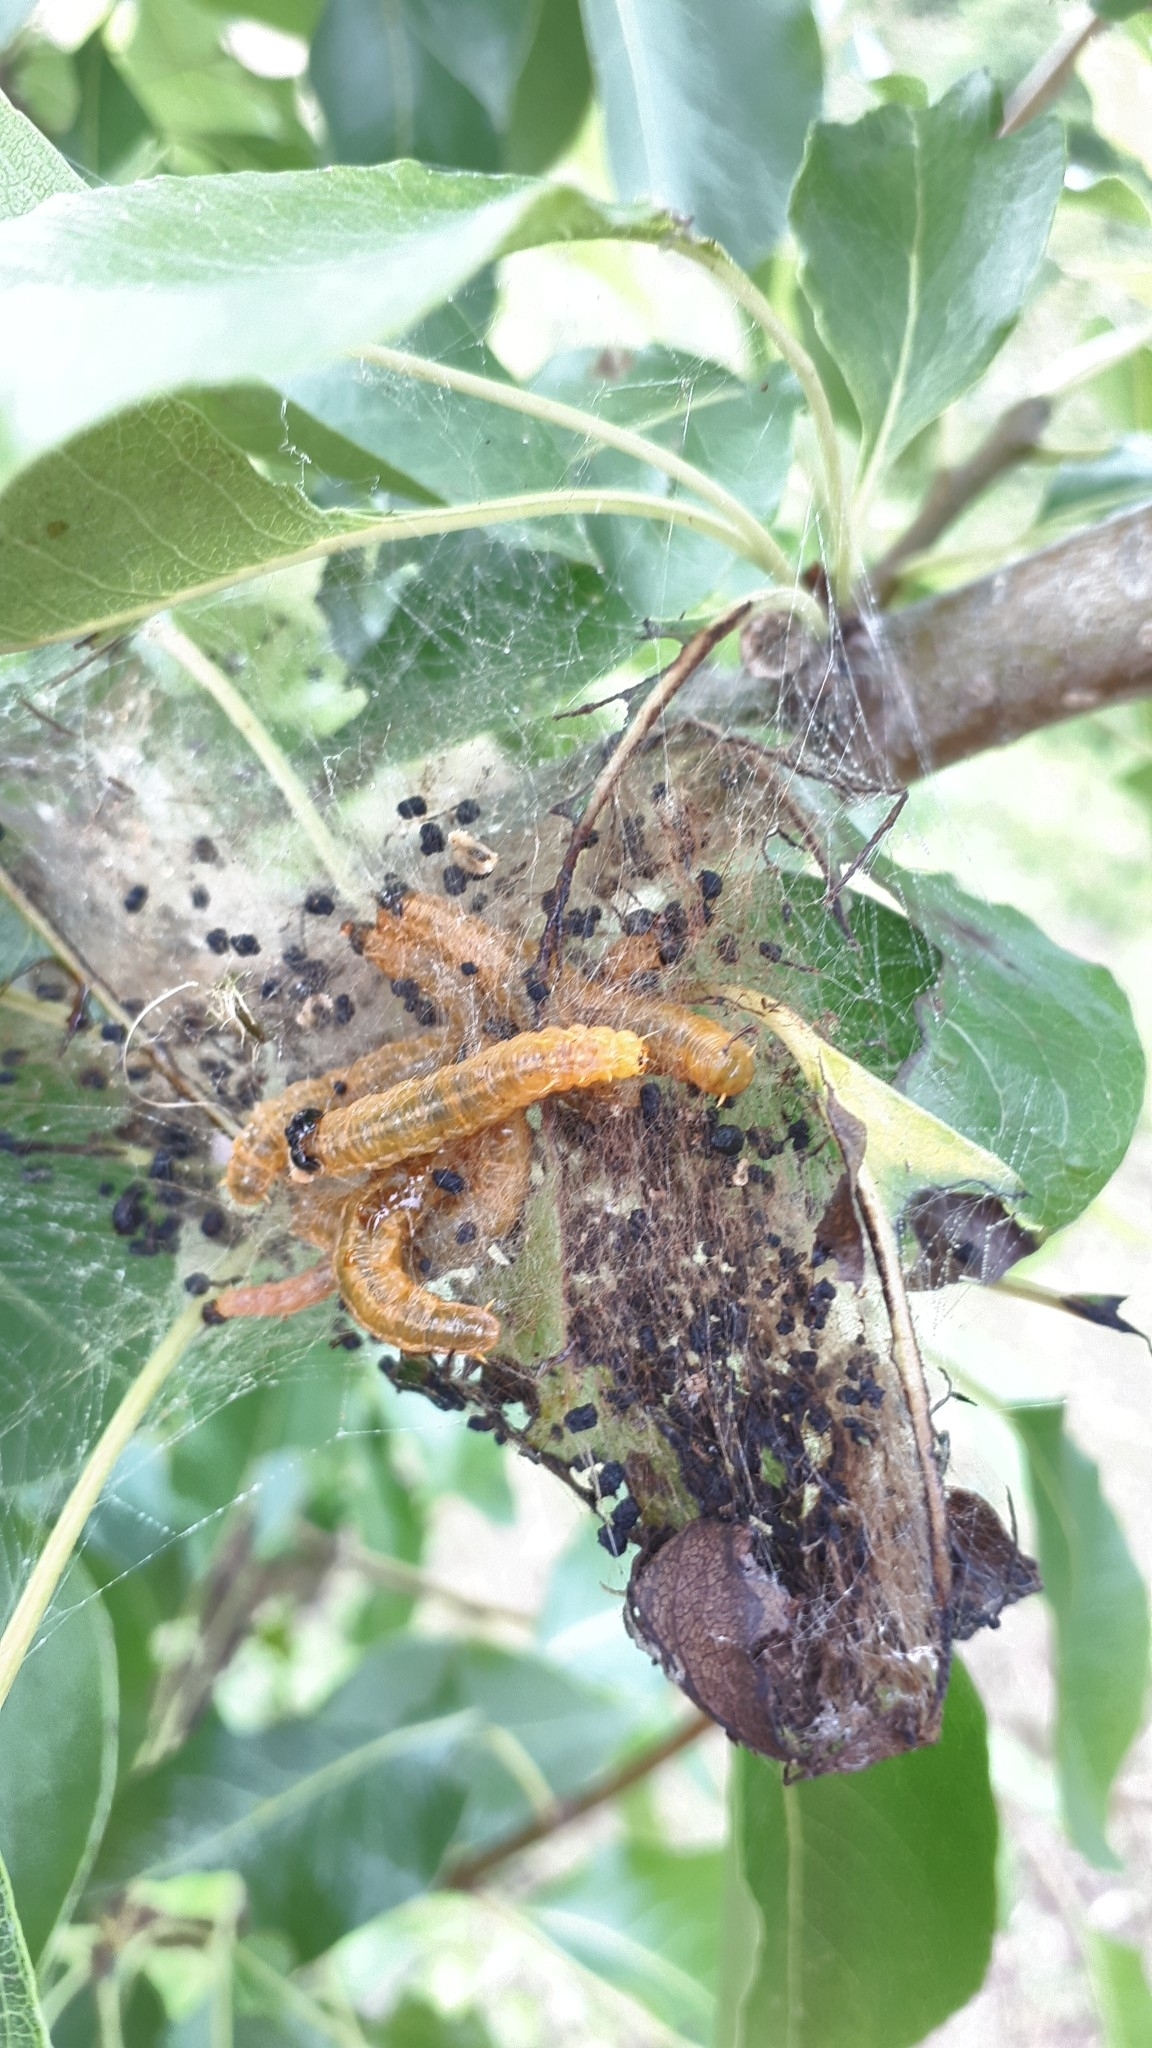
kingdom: Animalia
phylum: Arthropoda
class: Insecta
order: Hymenoptera
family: Pamphiliidae
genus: Neurotoma
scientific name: Neurotoma saltuum
